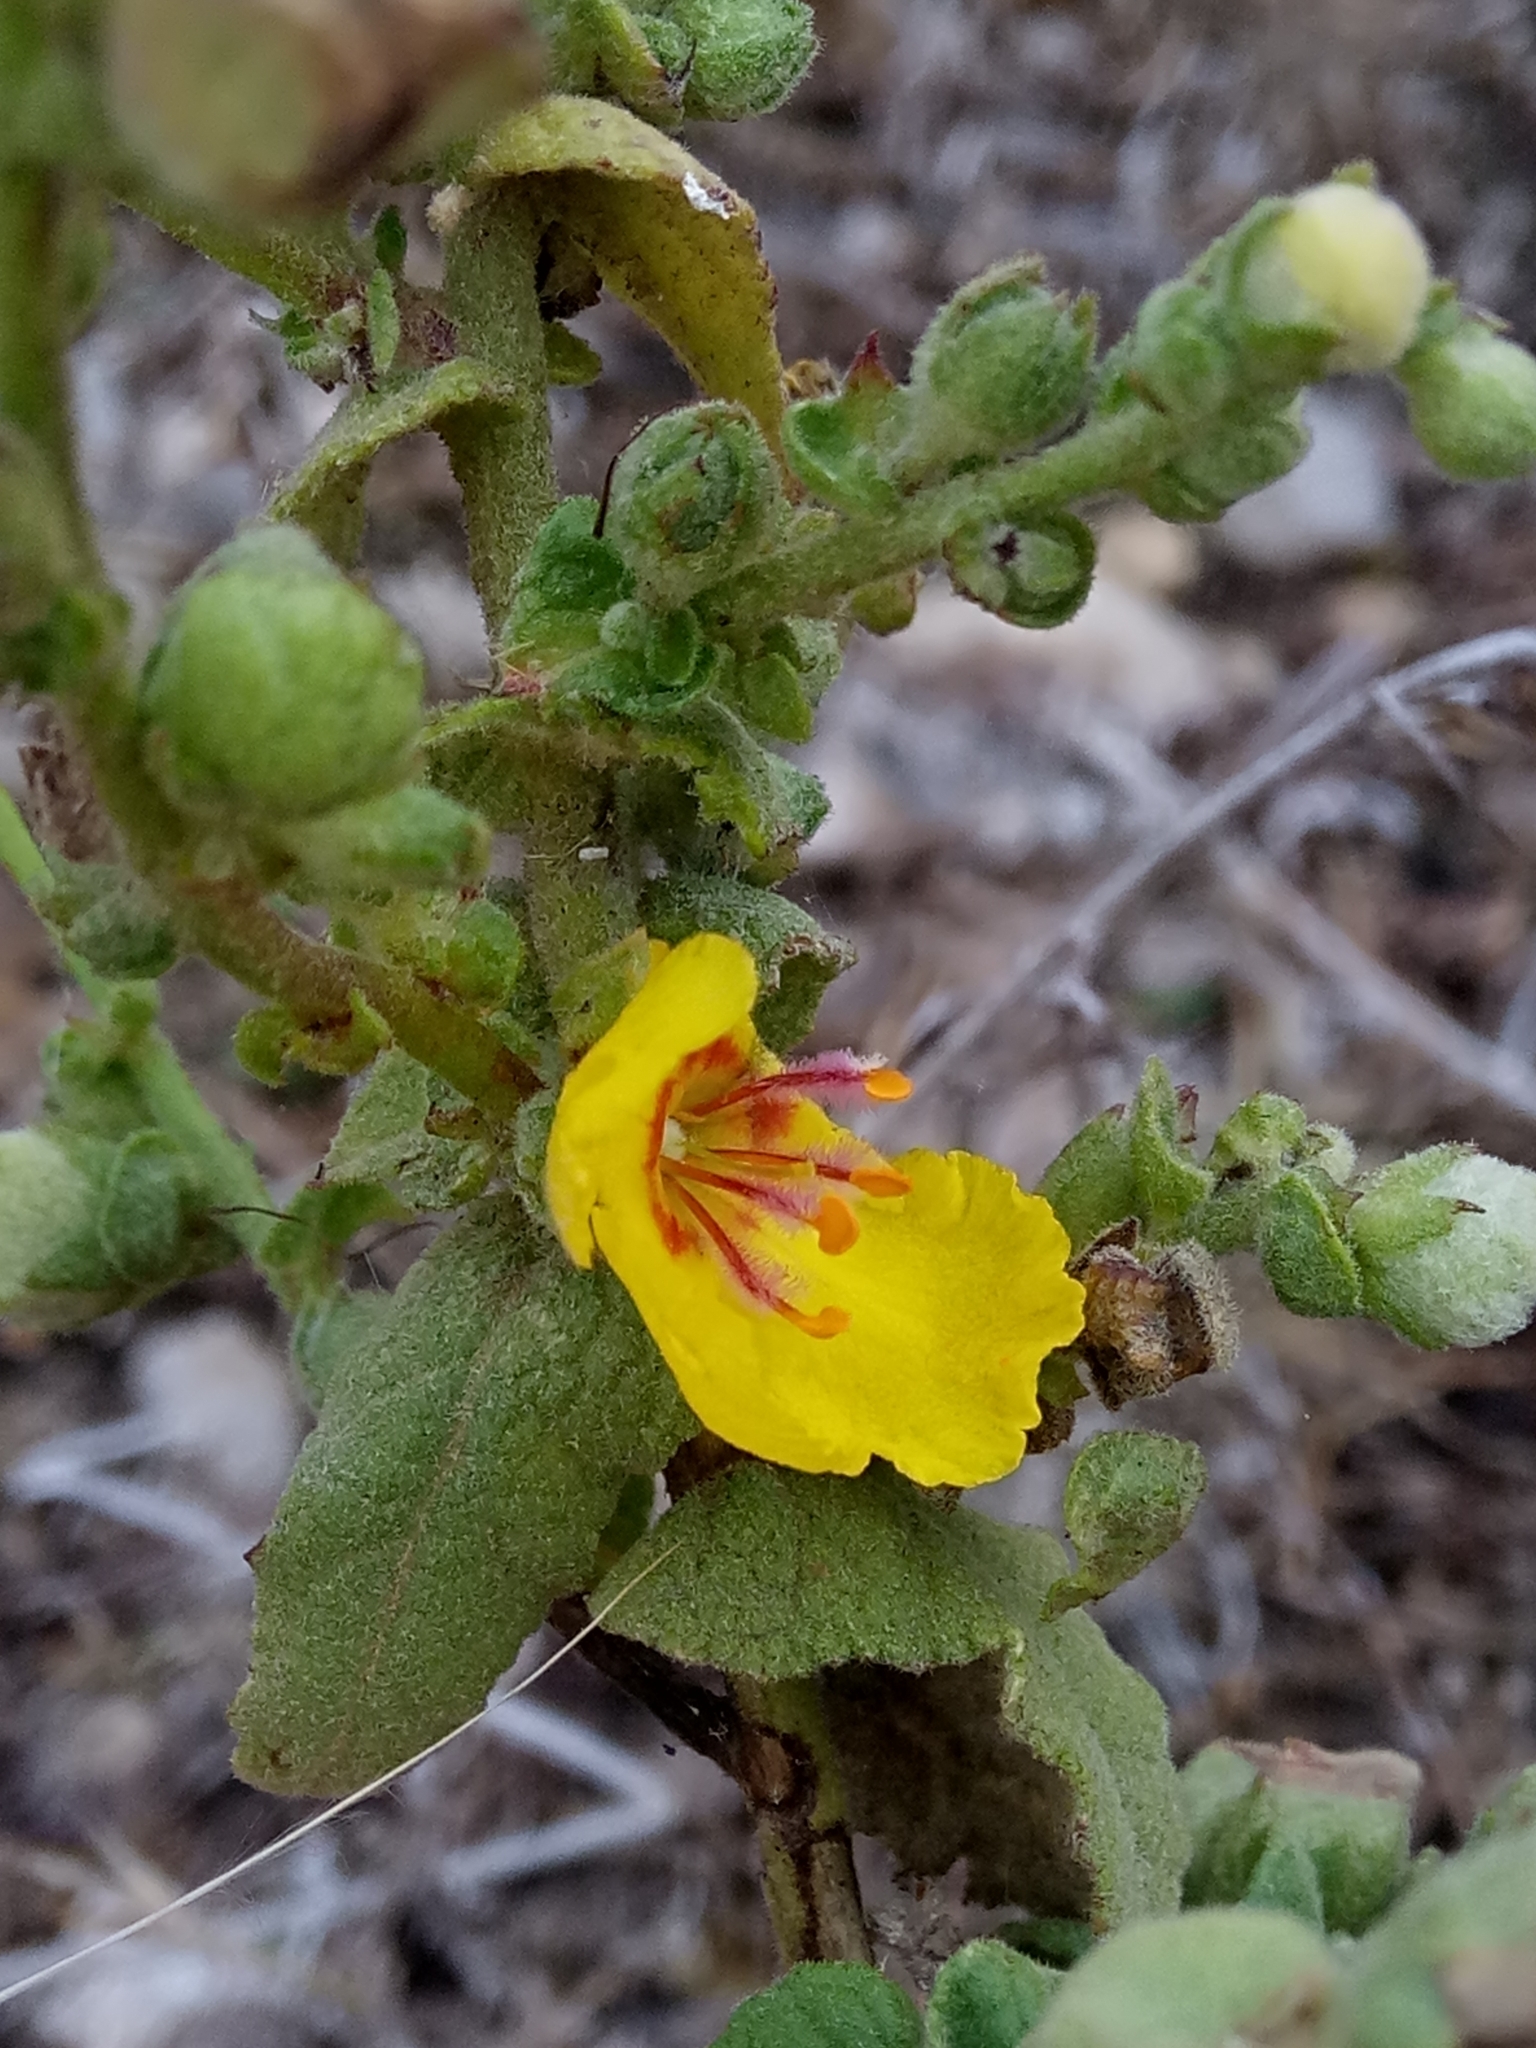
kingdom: Plantae
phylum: Tracheophyta
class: Magnoliopsida
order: Lamiales
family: Scrophulariaceae
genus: Verbascum
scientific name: Verbascum sinuatum
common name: Wavyleaf mullein
